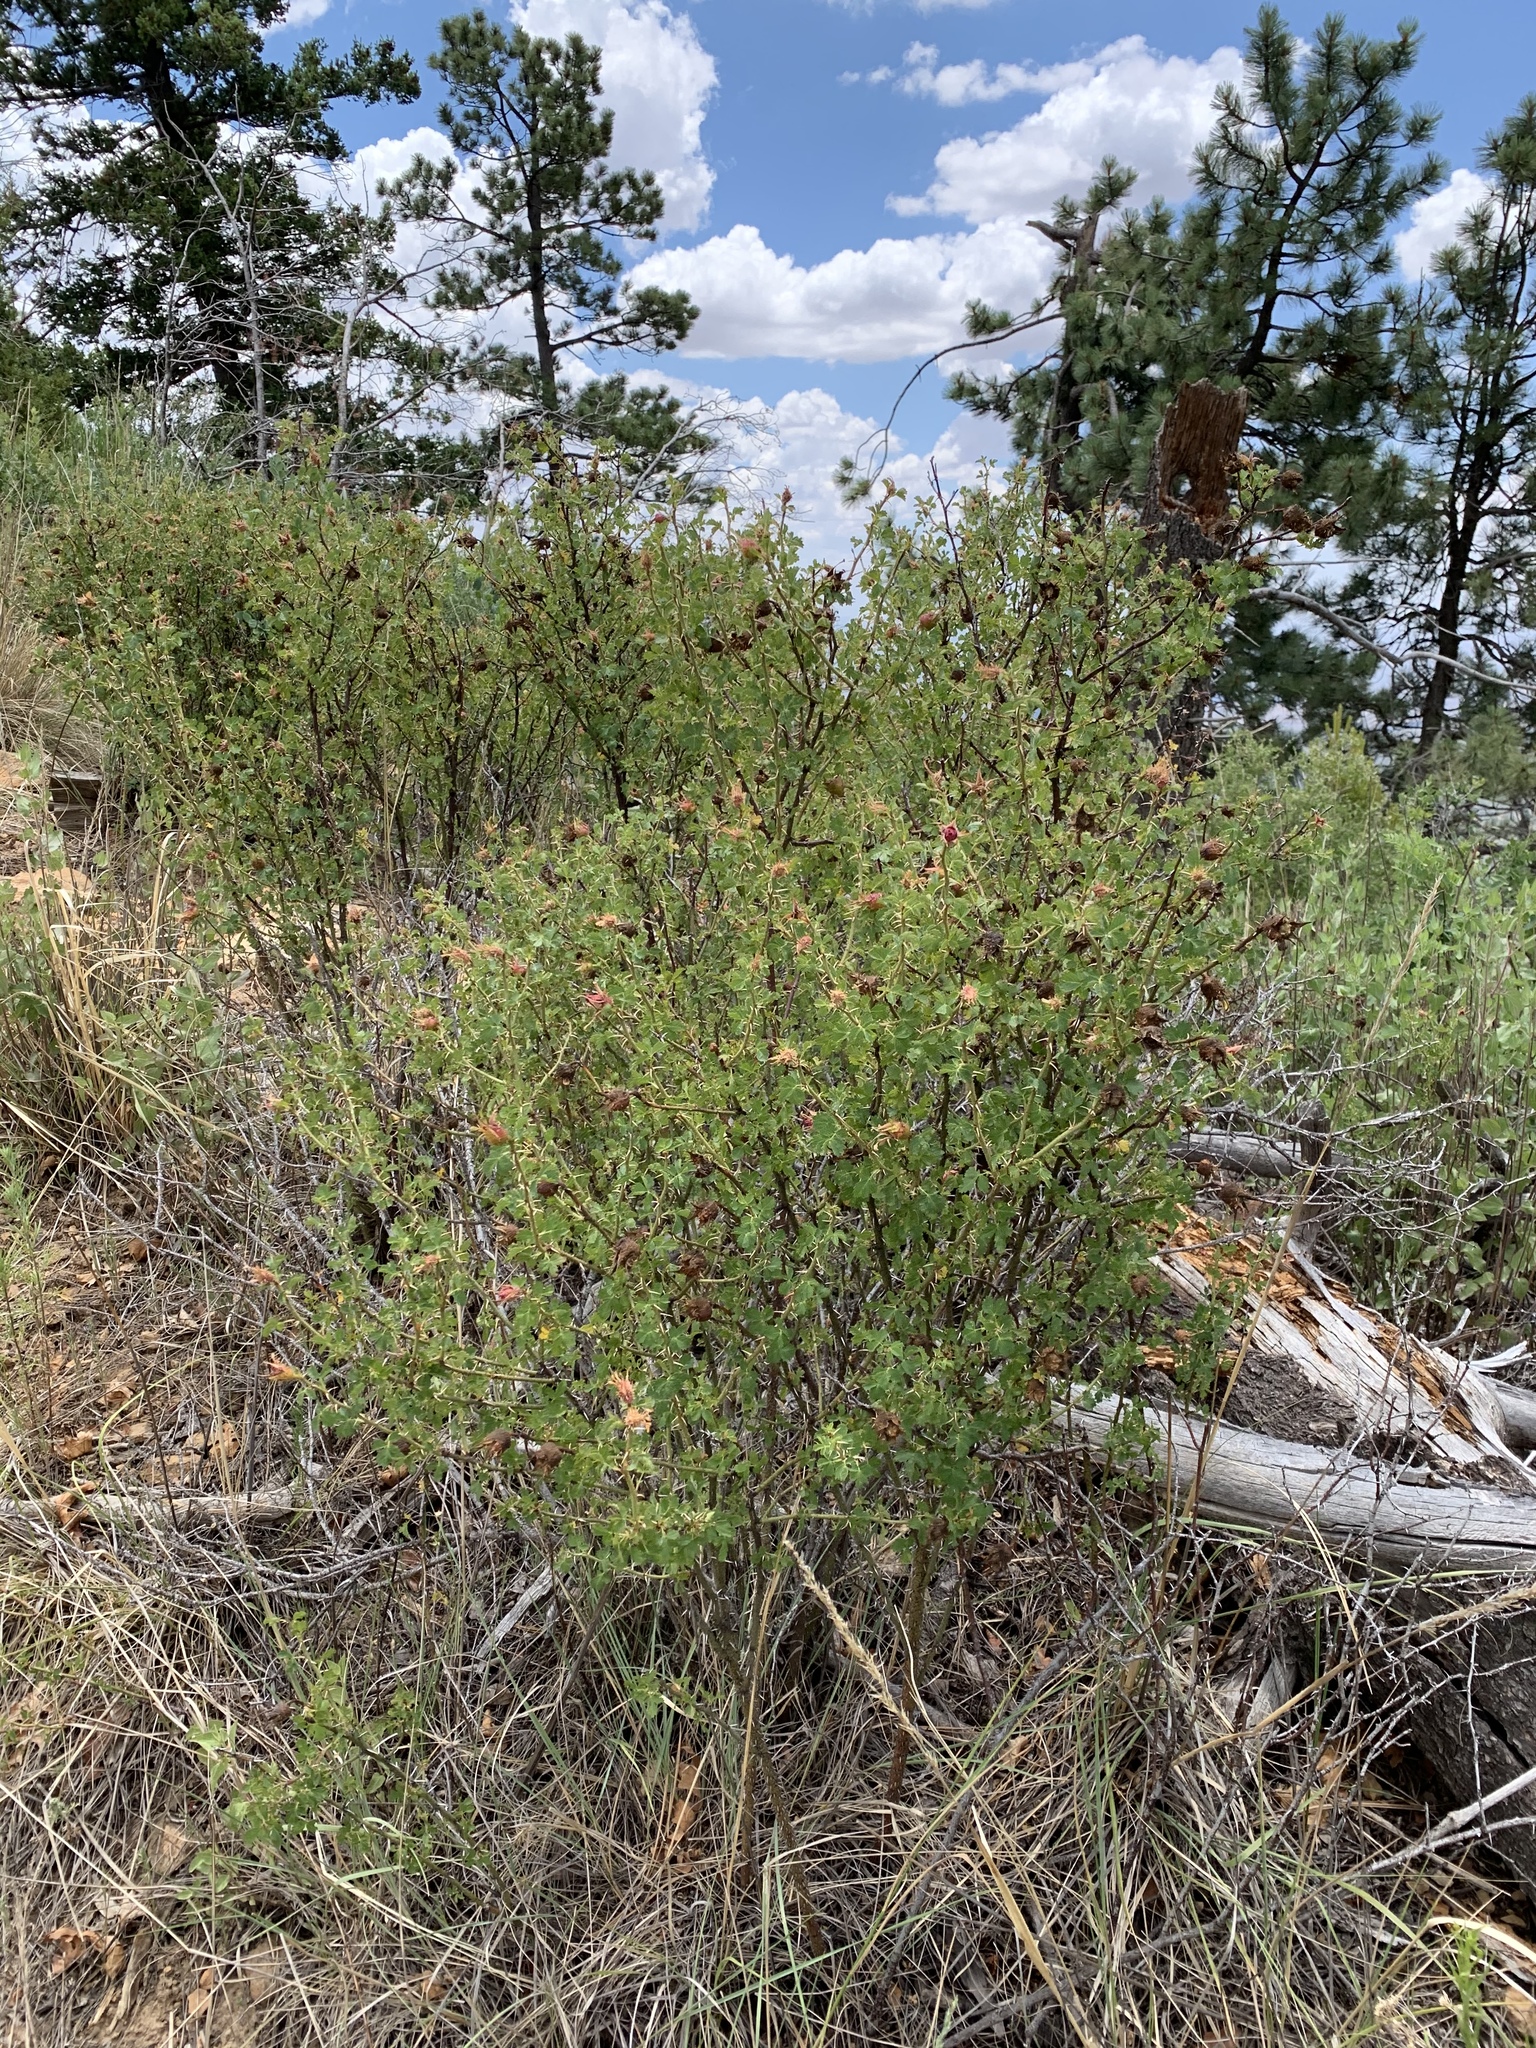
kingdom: Plantae
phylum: Tracheophyta
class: Magnoliopsida
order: Rosales
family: Rosaceae
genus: Rosa
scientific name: Rosa stellata
